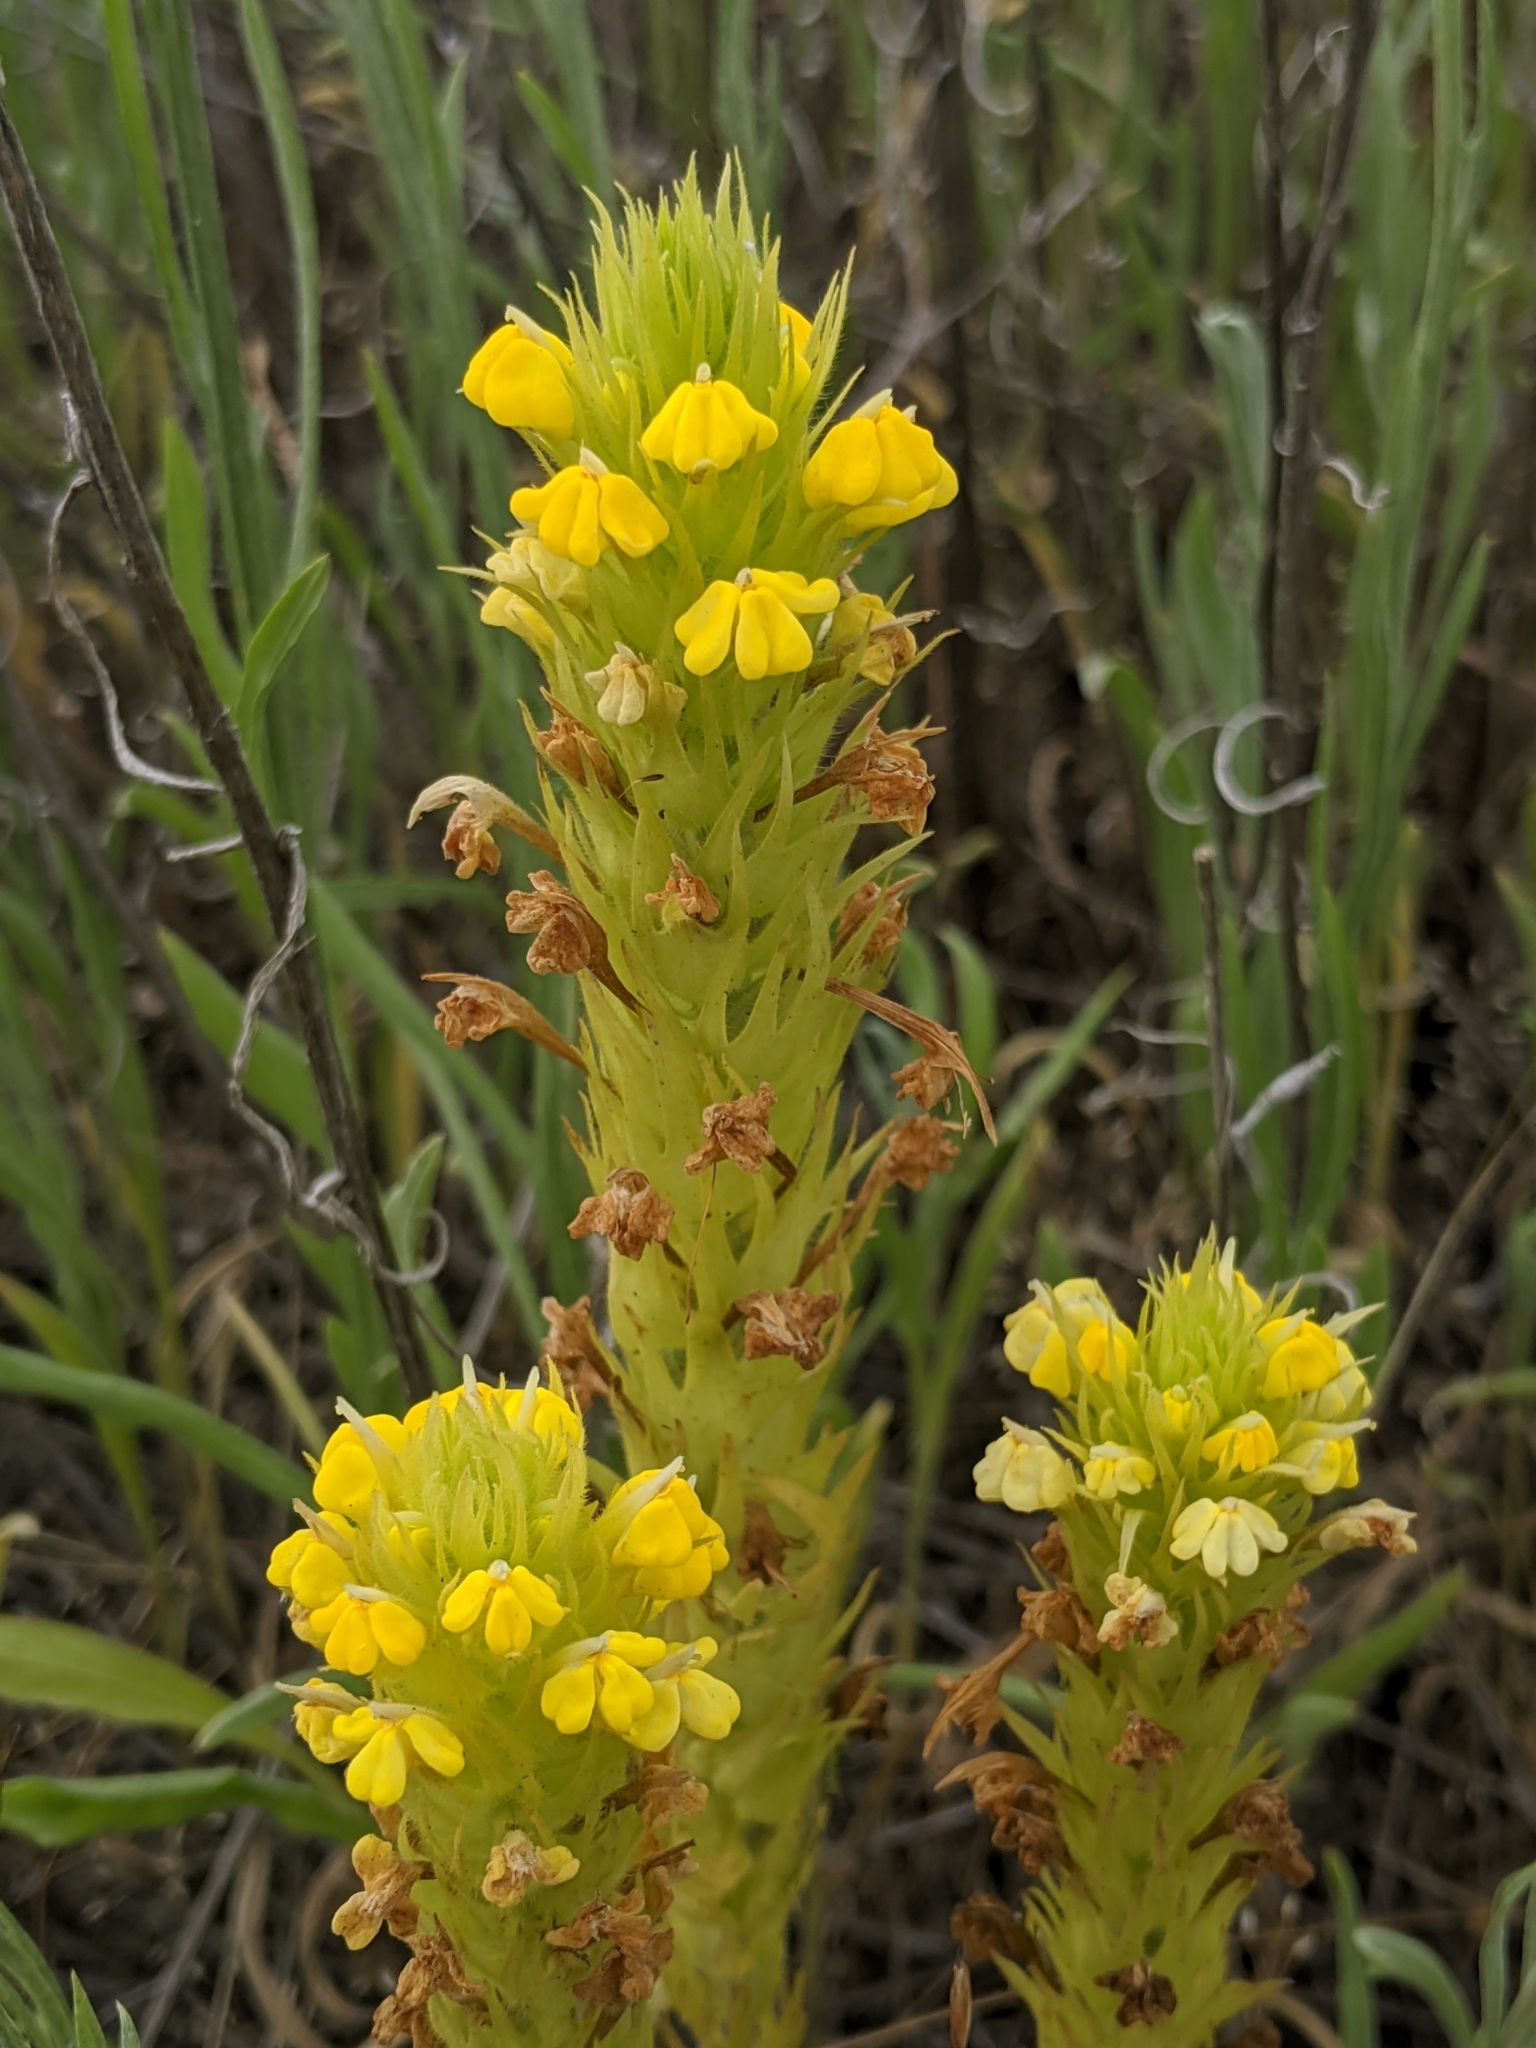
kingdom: Plantae
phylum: Tracheophyta
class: Magnoliopsida
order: Lamiales
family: Orobanchaceae
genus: Castilleja
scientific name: Castilleja rubicundula
